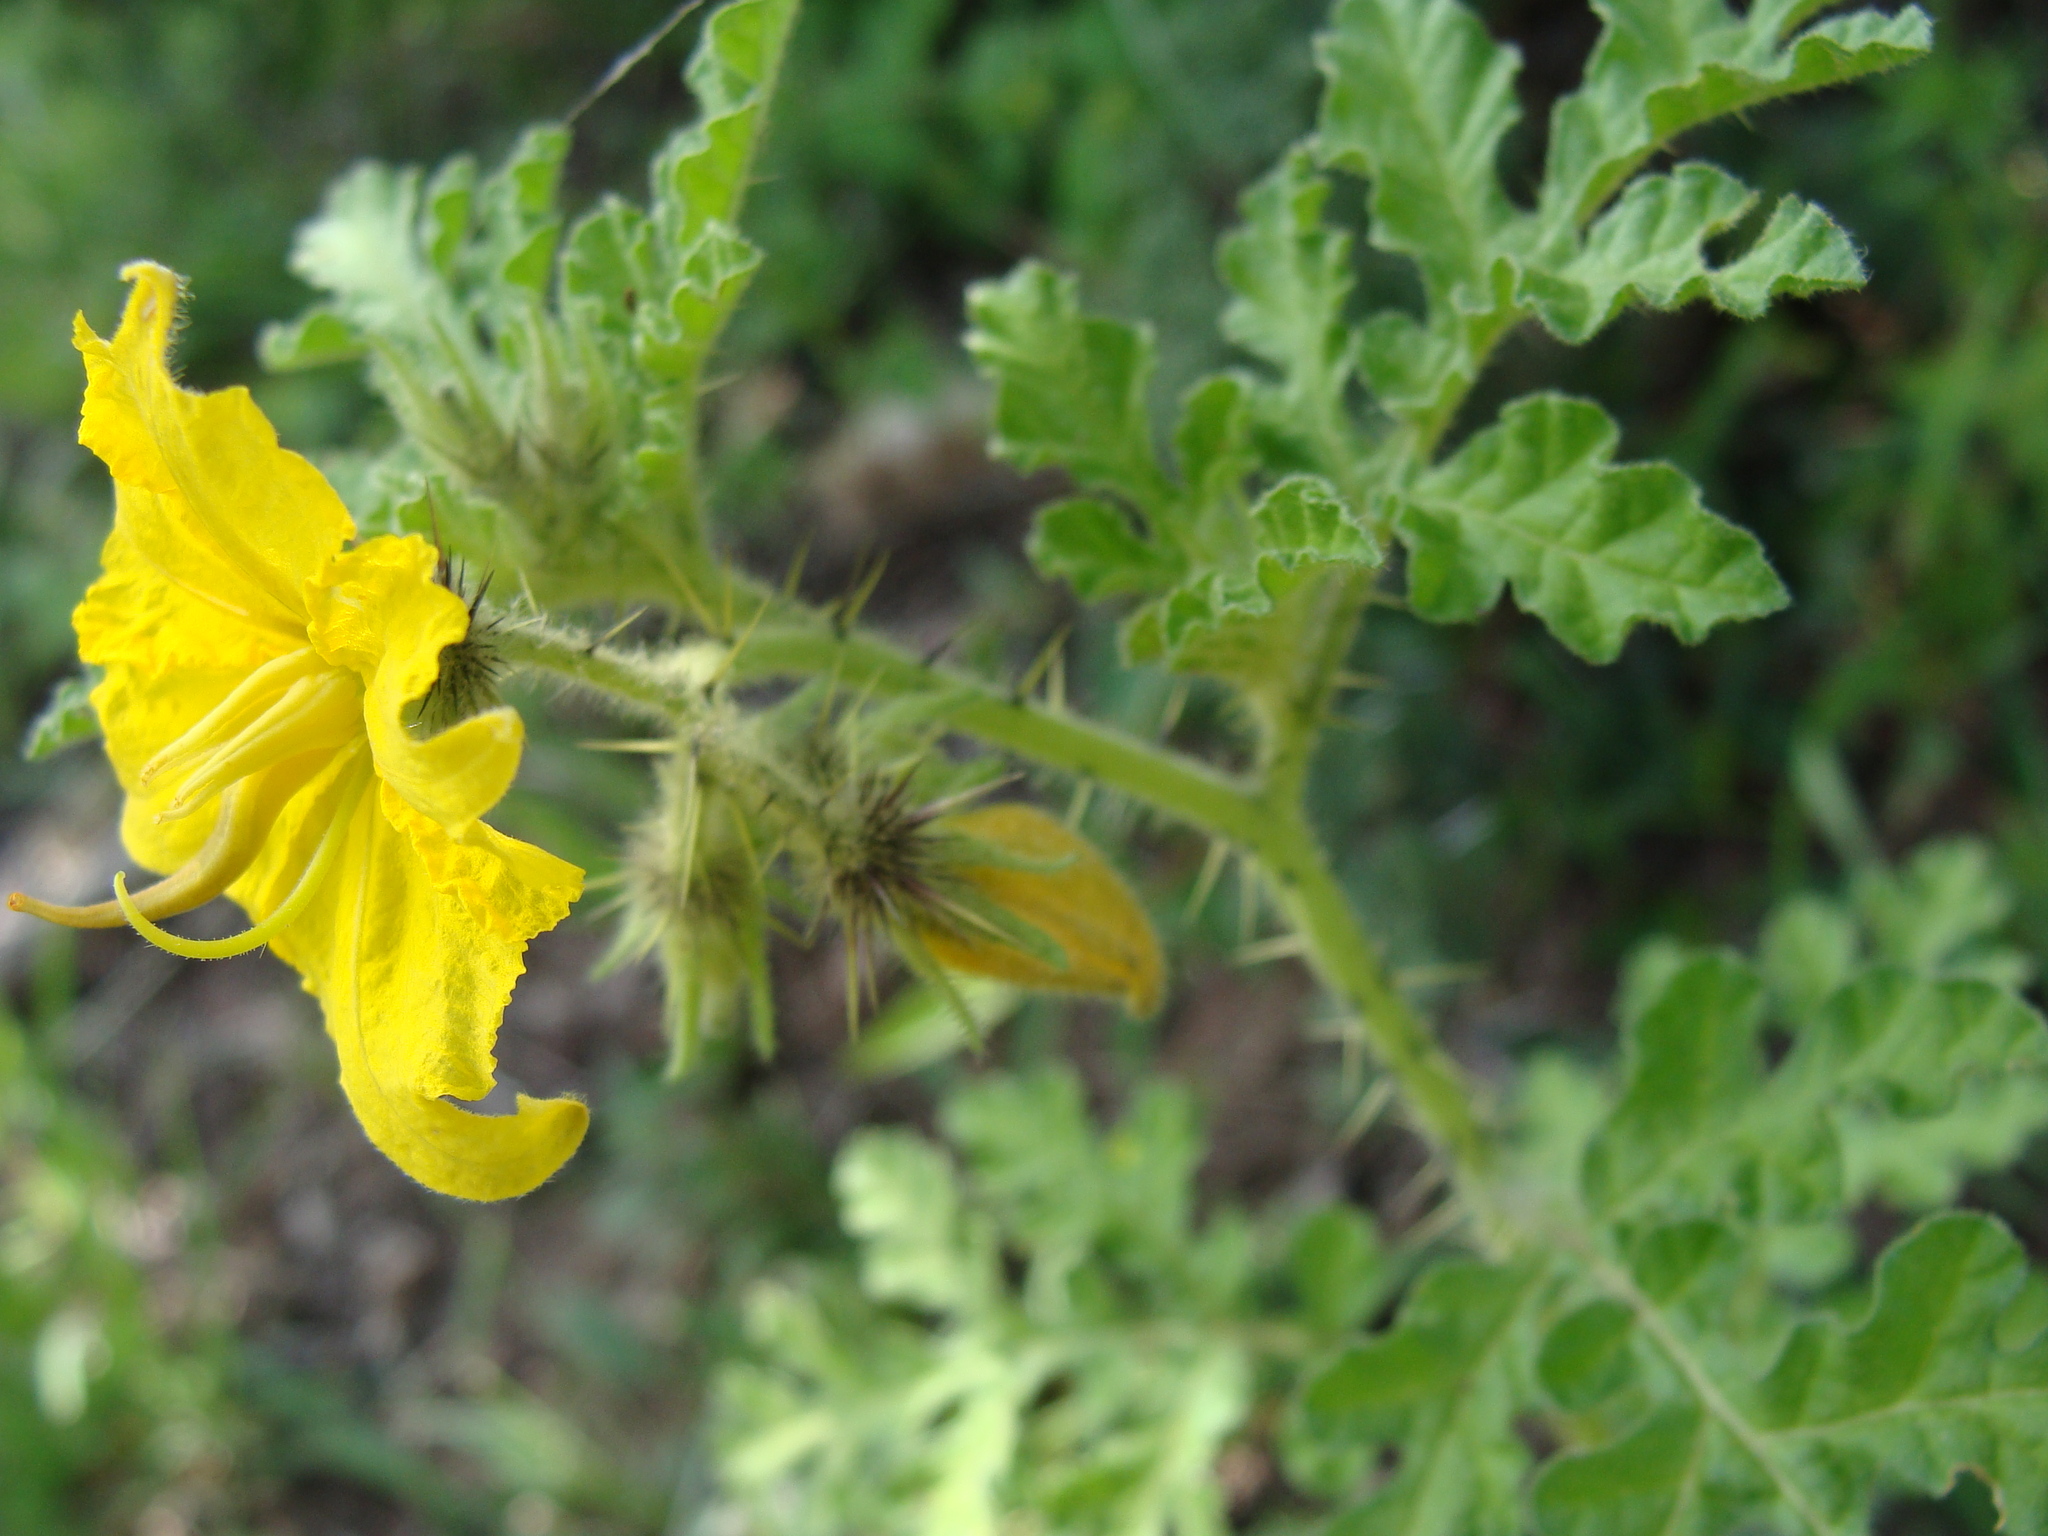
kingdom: Plantae
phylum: Tracheophyta
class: Magnoliopsida
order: Solanales
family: Solanaceae
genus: Solanum
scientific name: Solanum angustifolium
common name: Buffalobur nightshade
